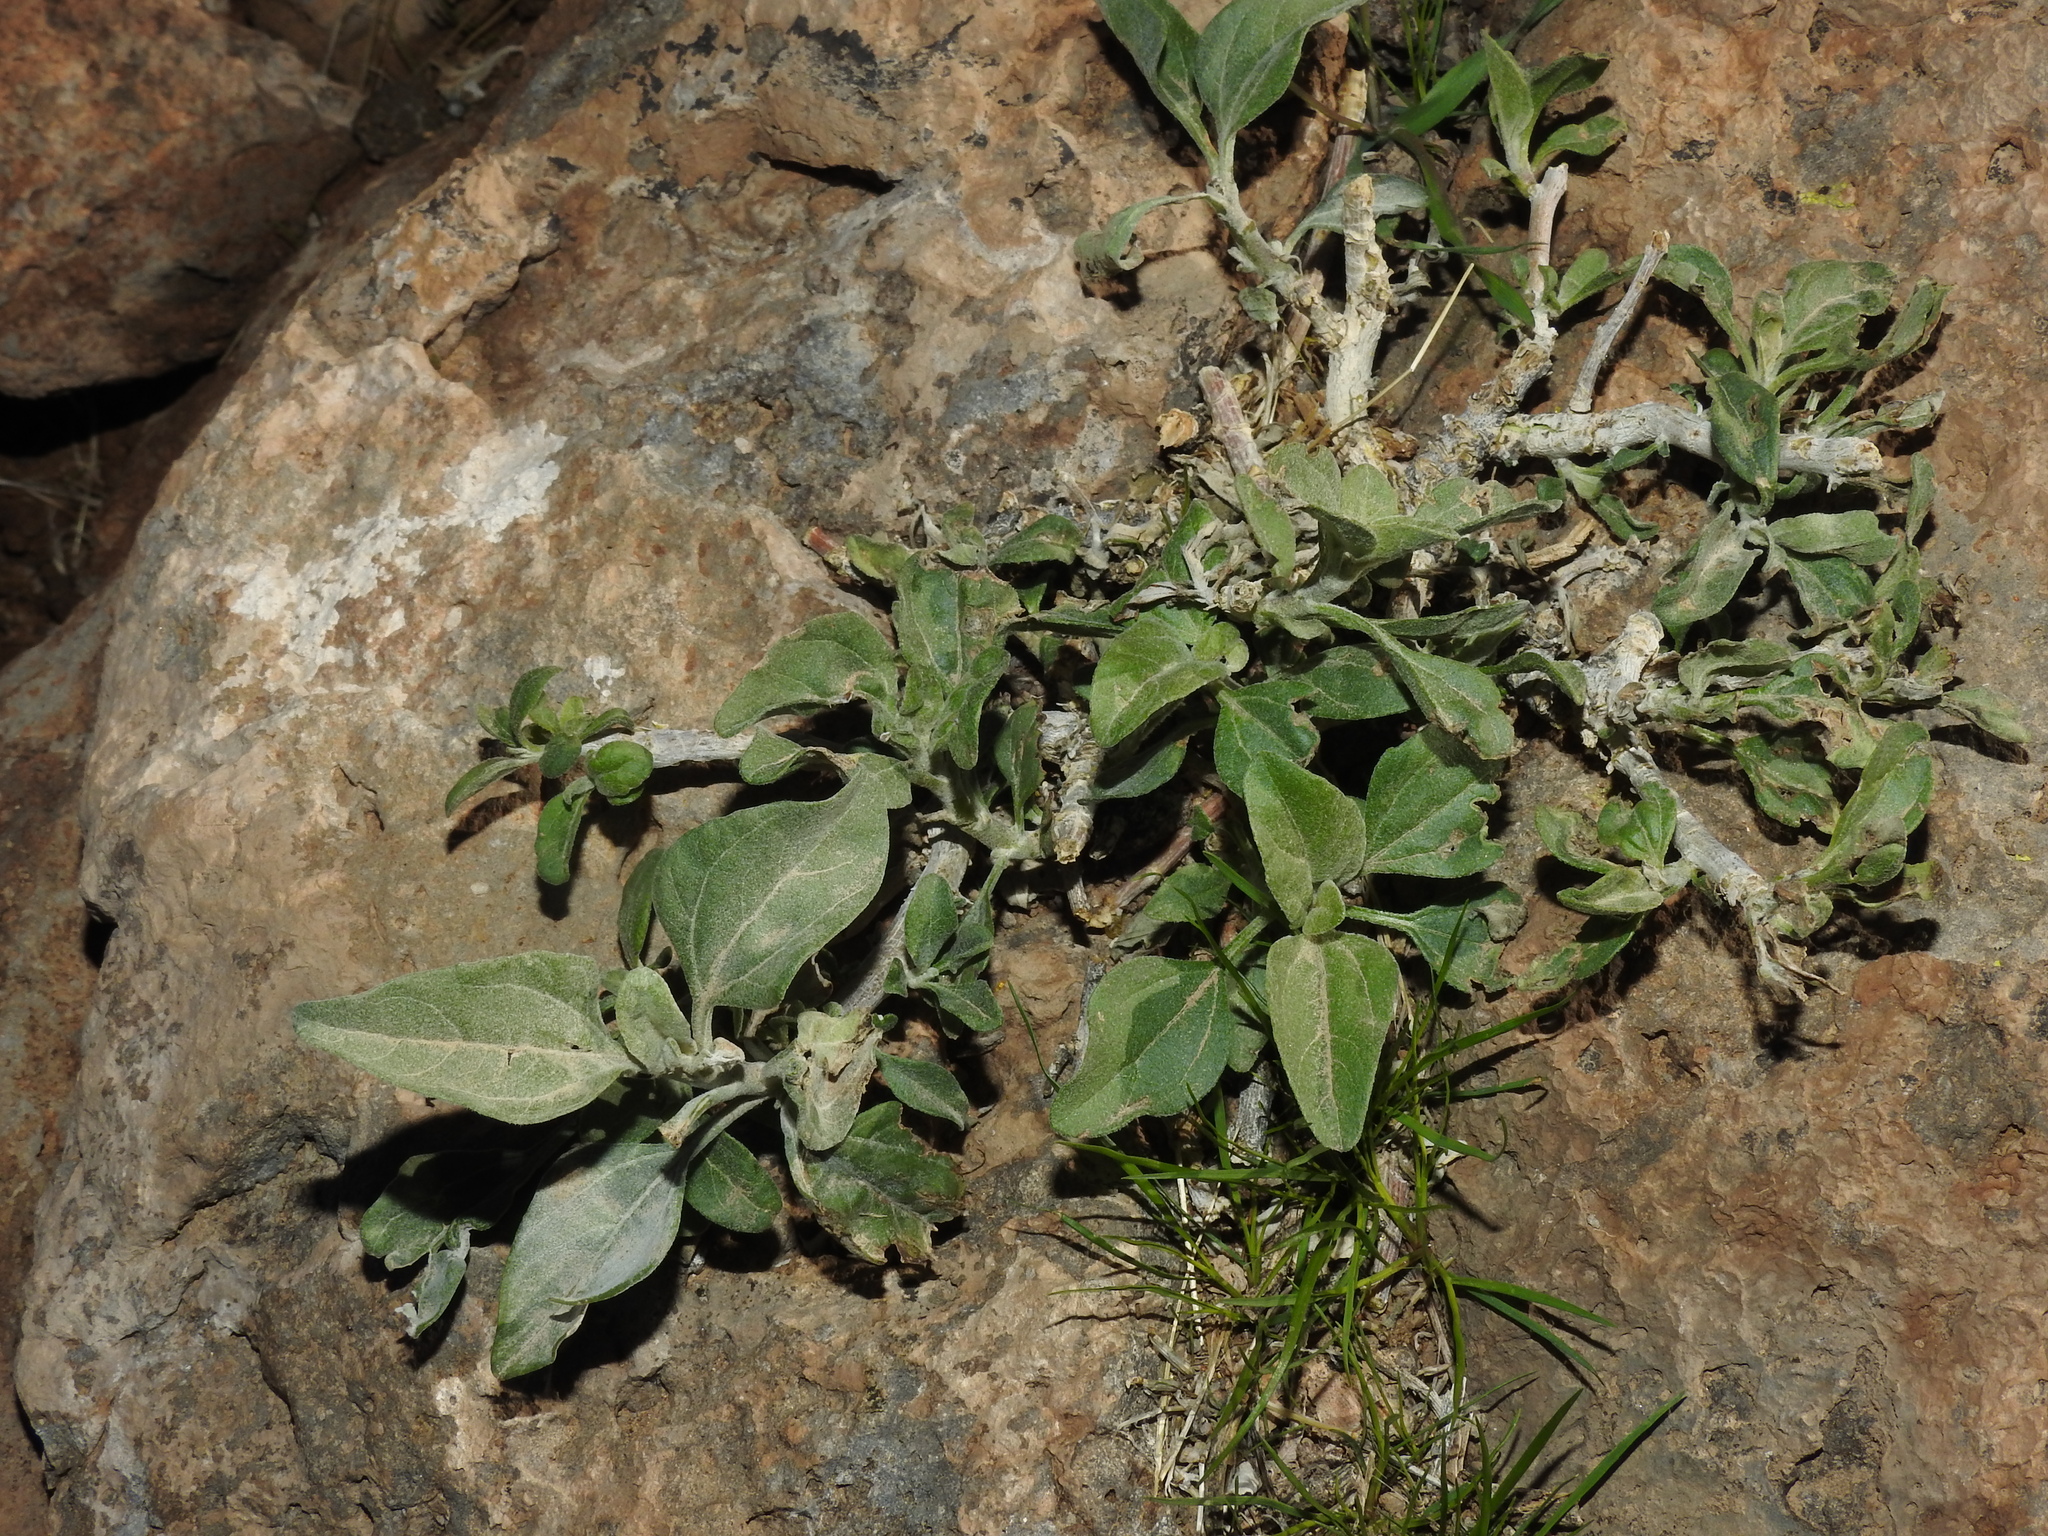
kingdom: Plantae
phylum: Tracheophyta
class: Magnoliopsida
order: Asterales
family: Asteraceae
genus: Encelia
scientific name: Encelia farinosa
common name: Brittlebush
